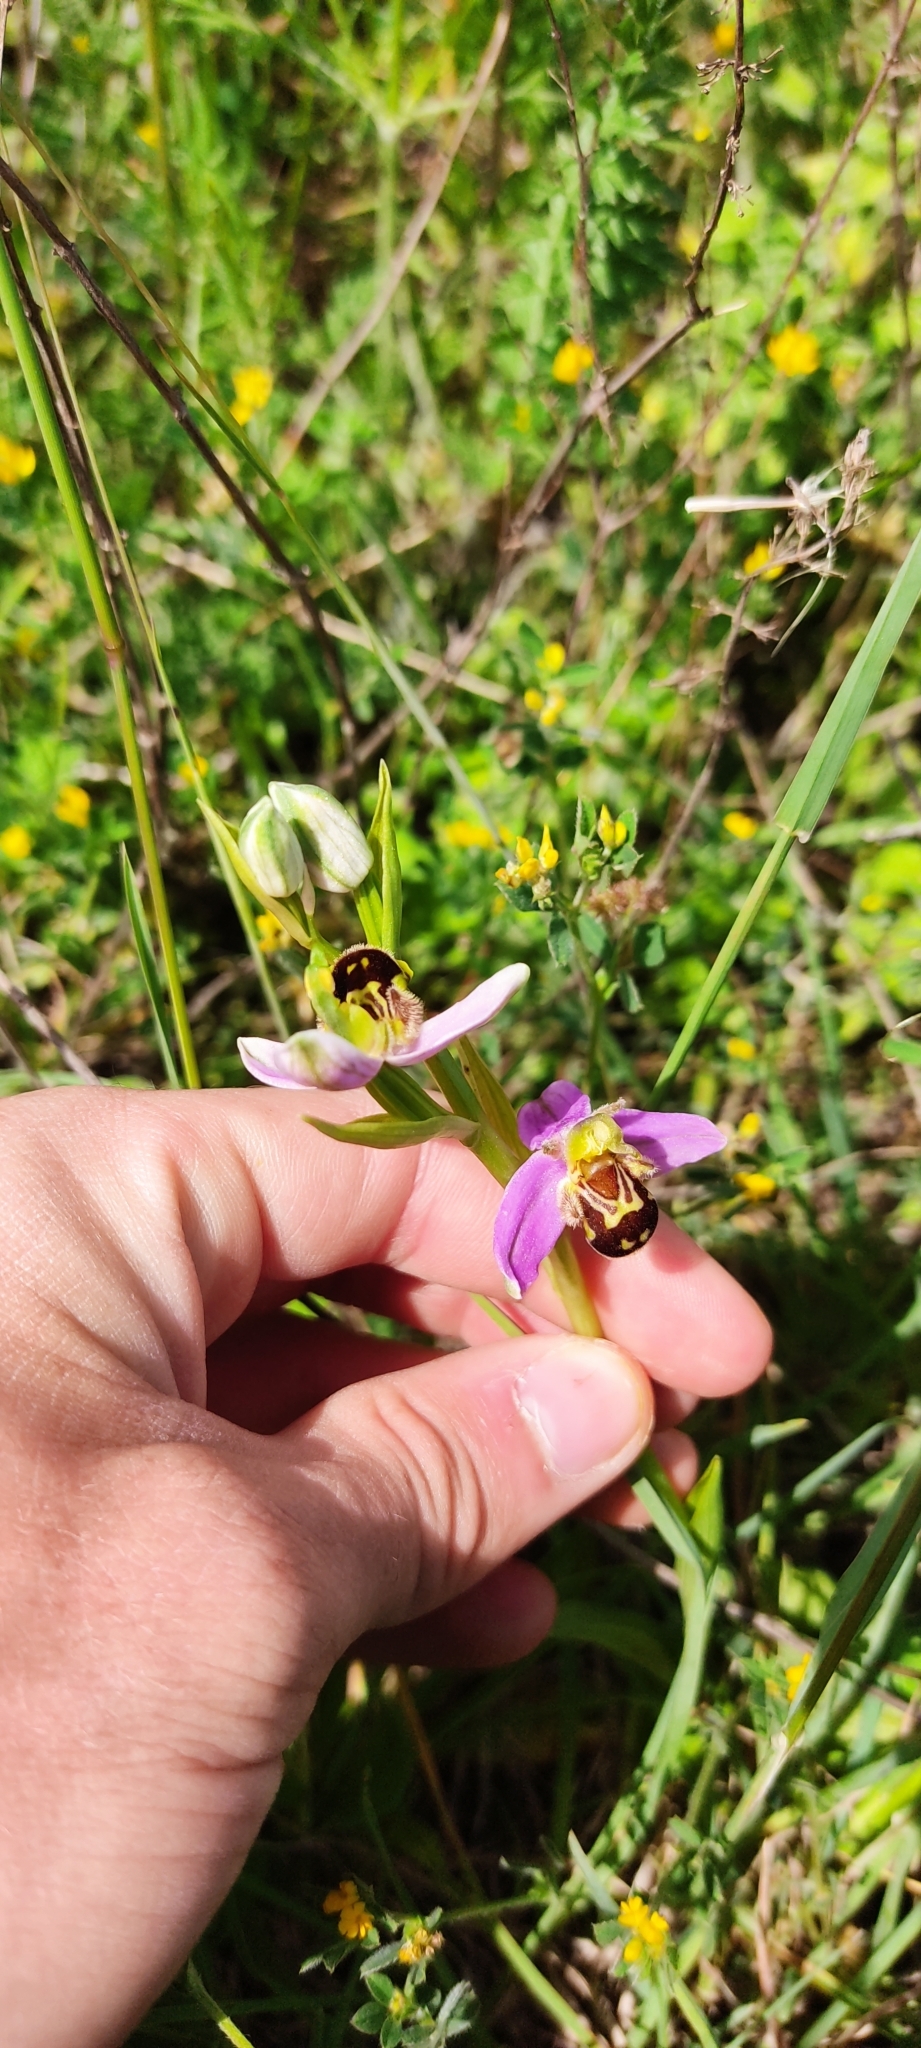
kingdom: Plantae
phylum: Tracheophyta
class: Liliopsida
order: Asparagales
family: Orchidaceae
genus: Ophrys
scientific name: Ophrys apifera
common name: Bee orchid
